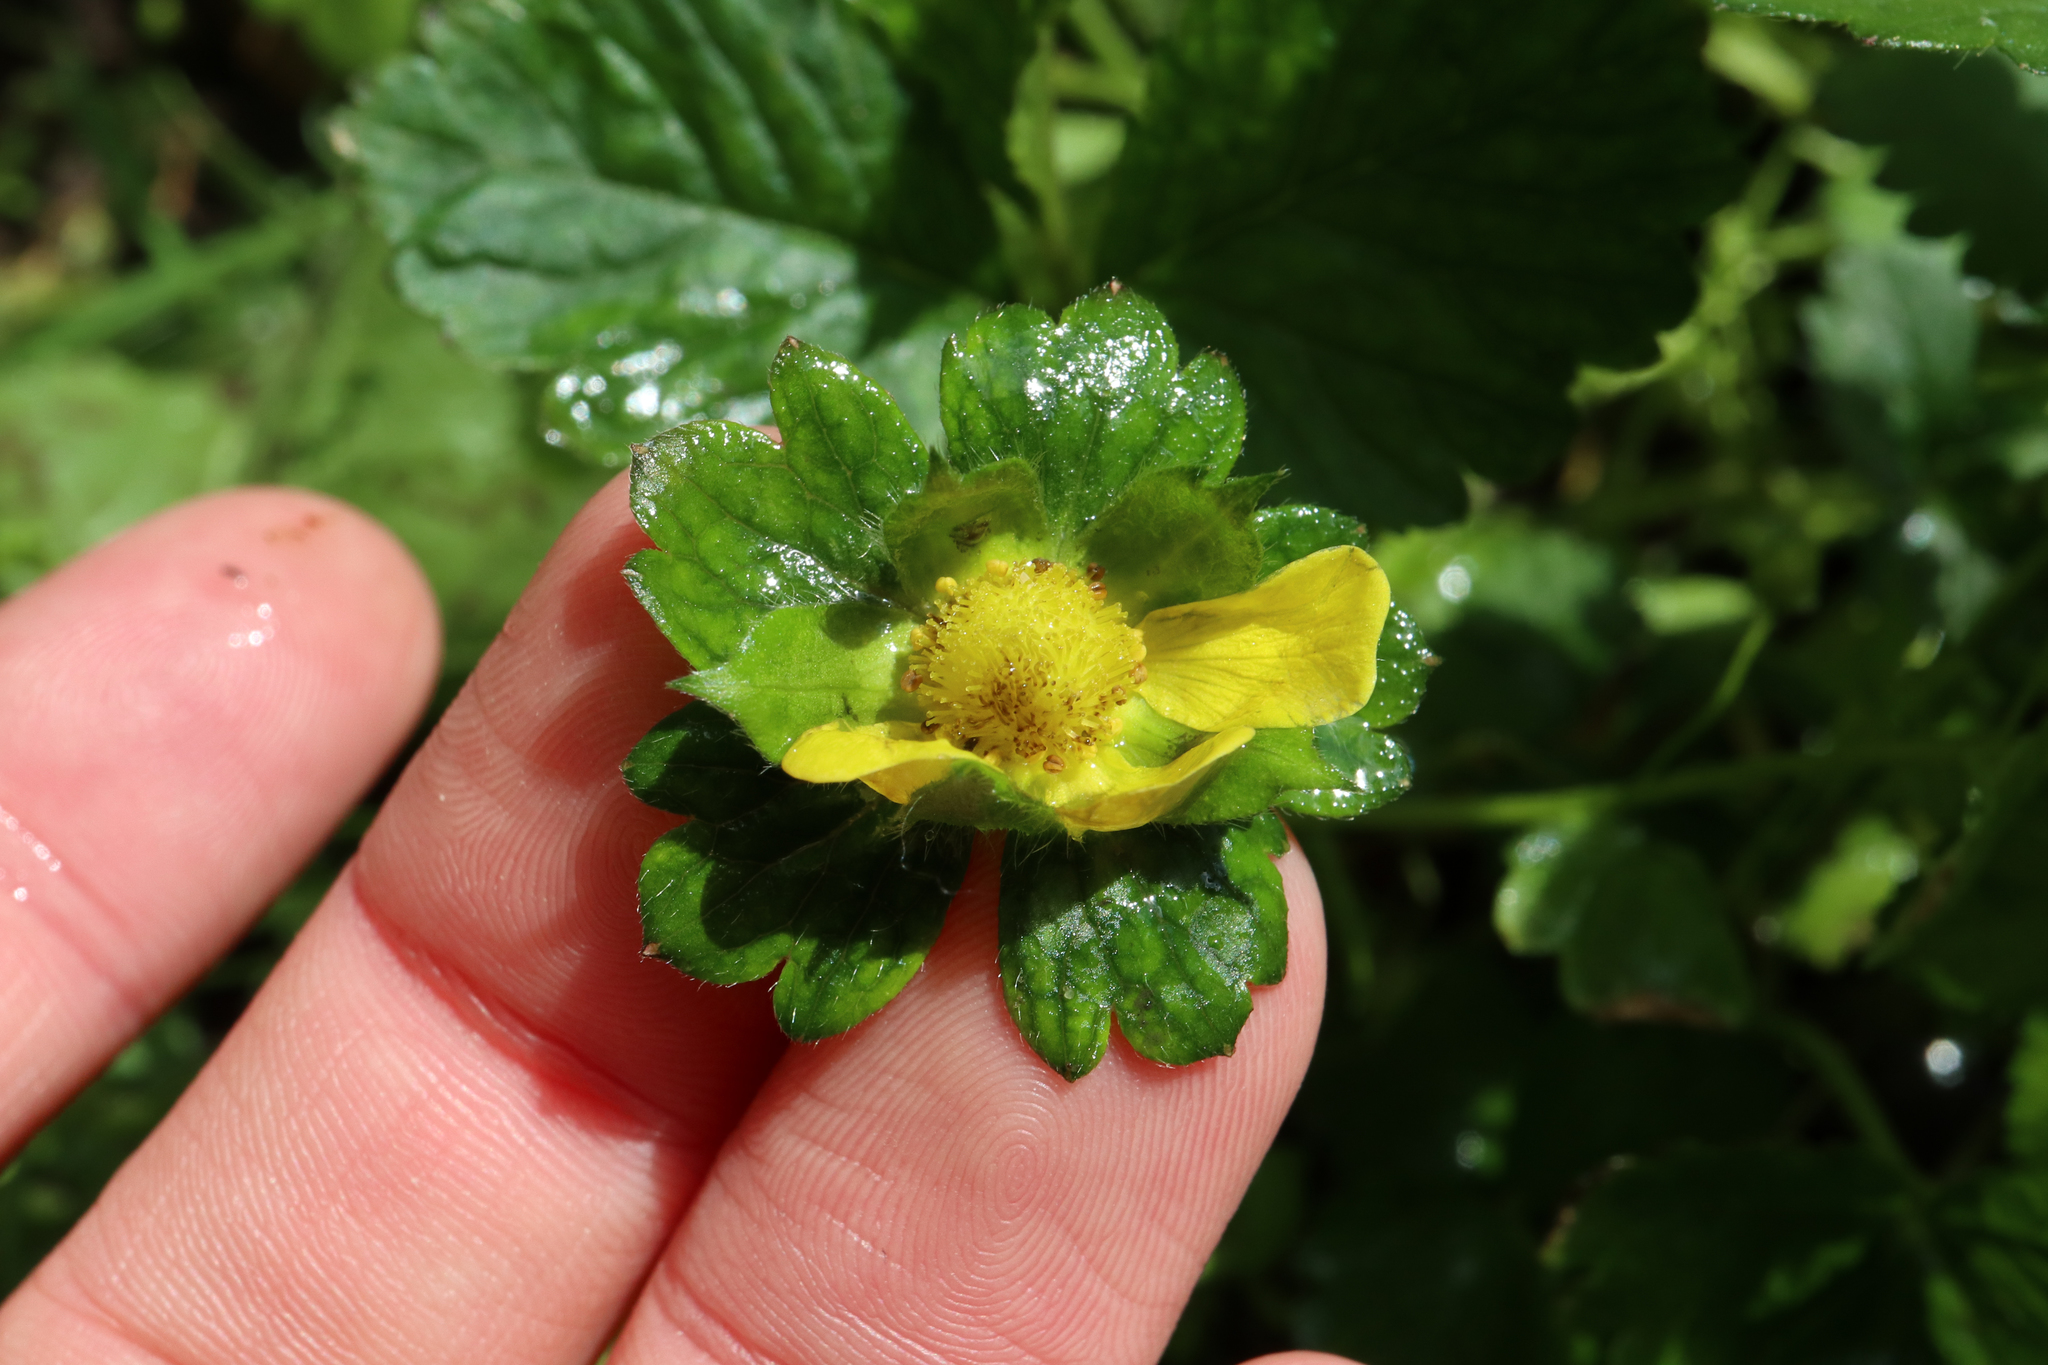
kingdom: Plantae
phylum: Tracheophyta
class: Magnoliopsida
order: Rosales
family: Rosaceae
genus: Potentilla
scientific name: Potentilla indica
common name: Yellow-flowered strawberry
